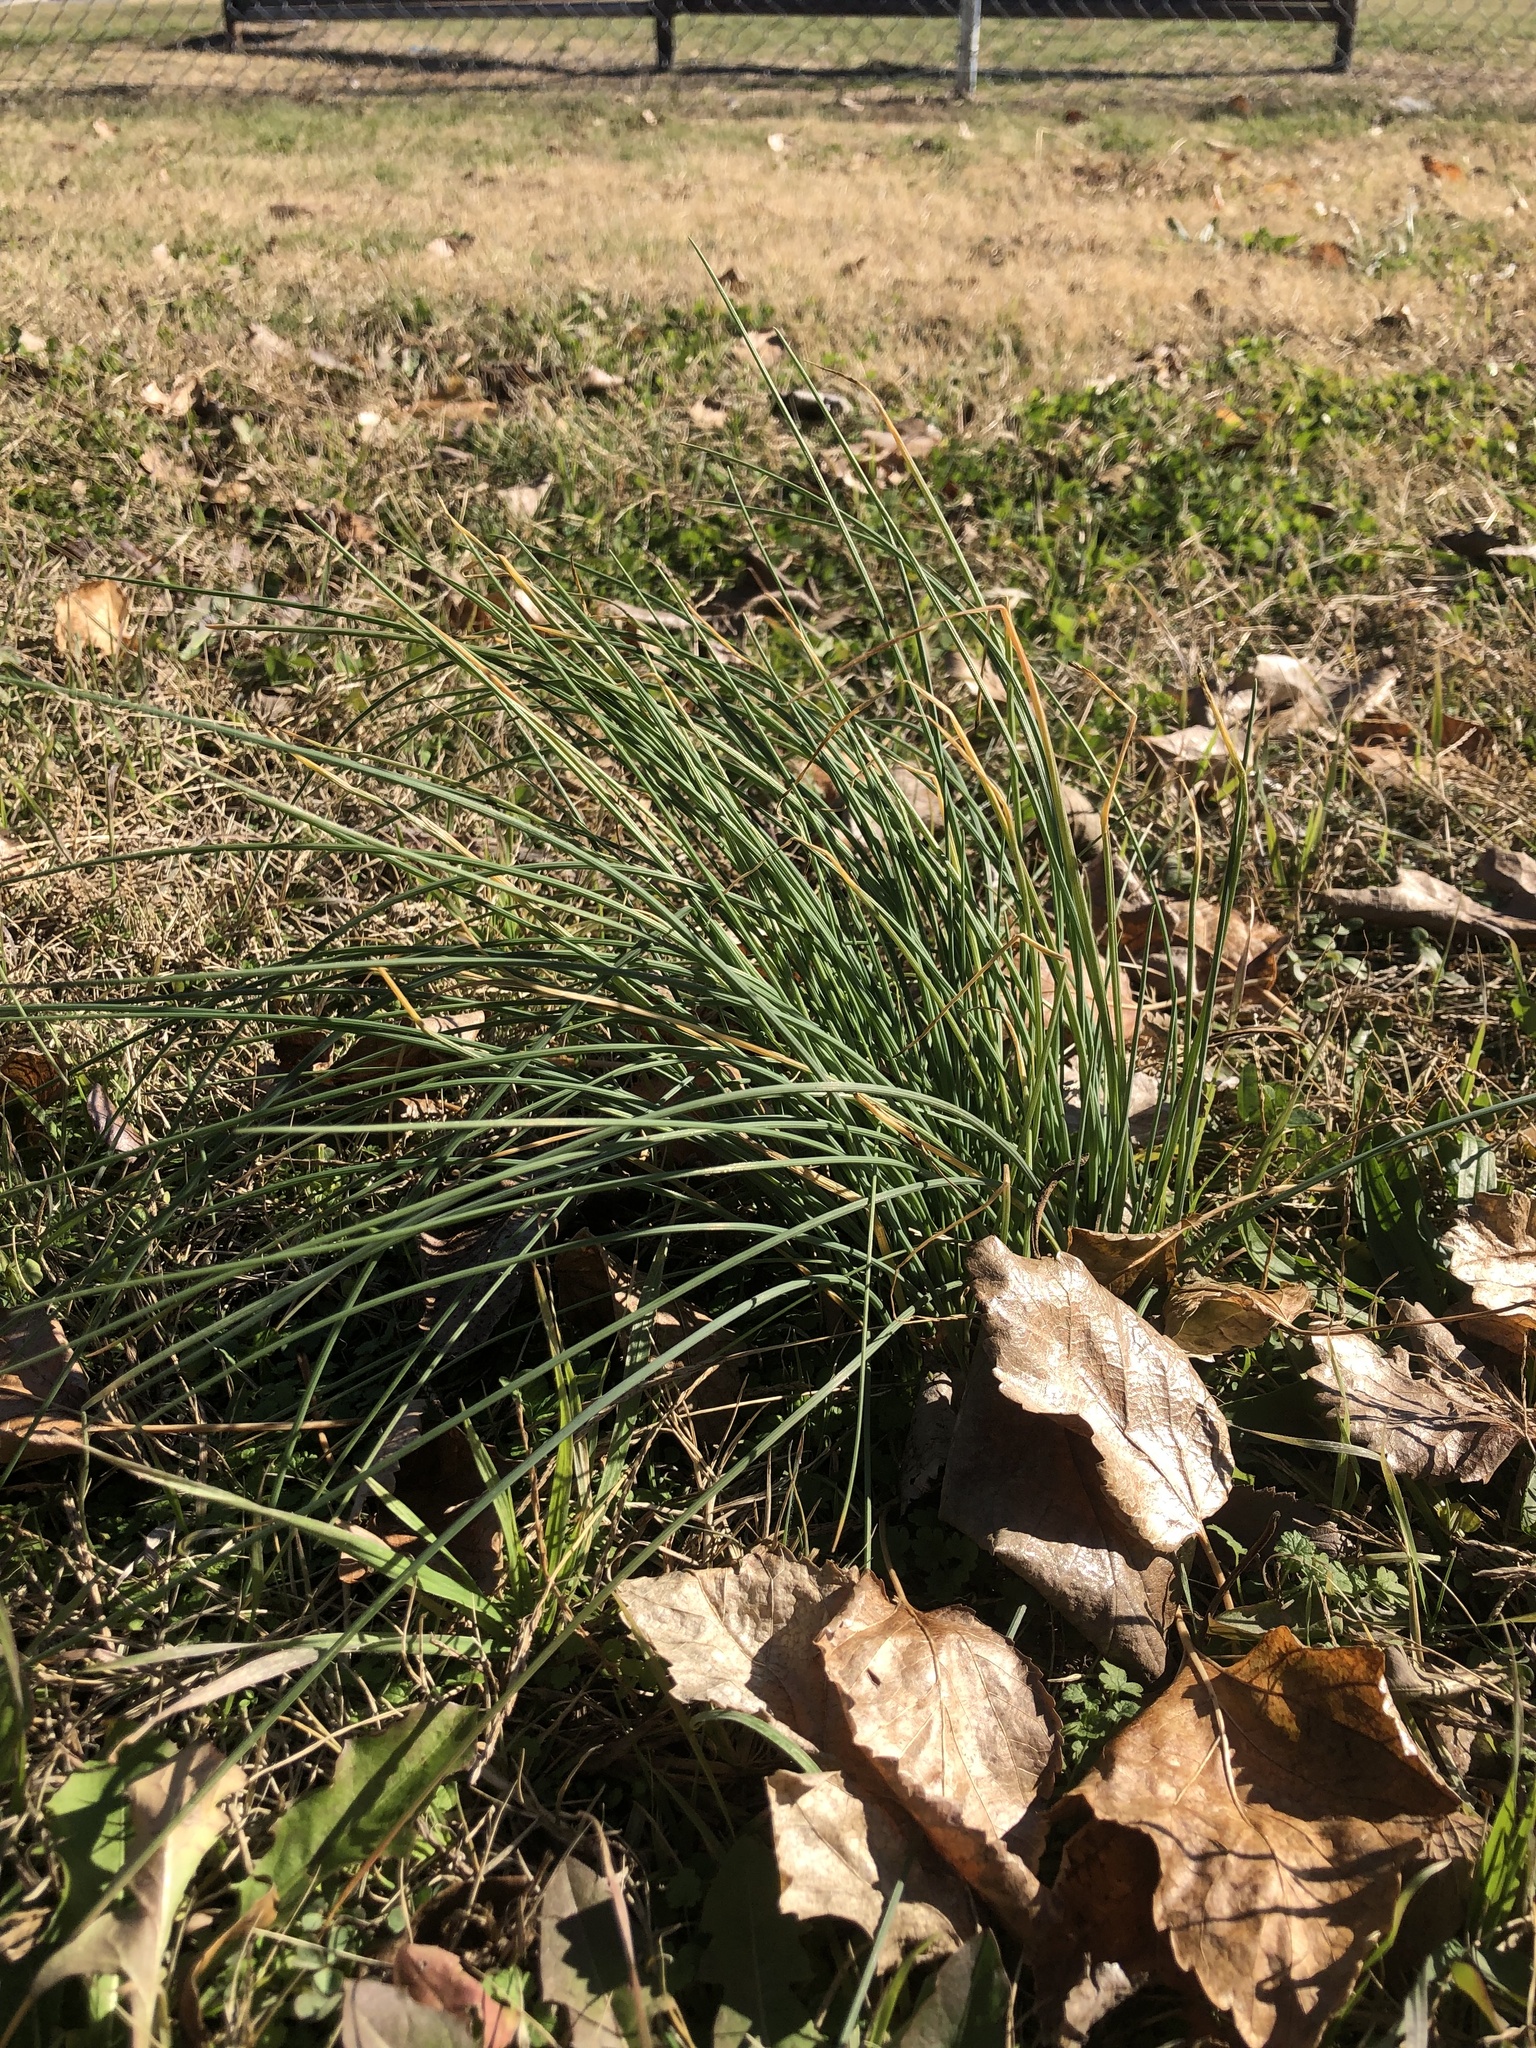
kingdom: Plantae
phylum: Tracheophyta
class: Liliopsida
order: Asparagales
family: Amaryllidaceae
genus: Allium
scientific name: Allium vineale
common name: Crow garlic
